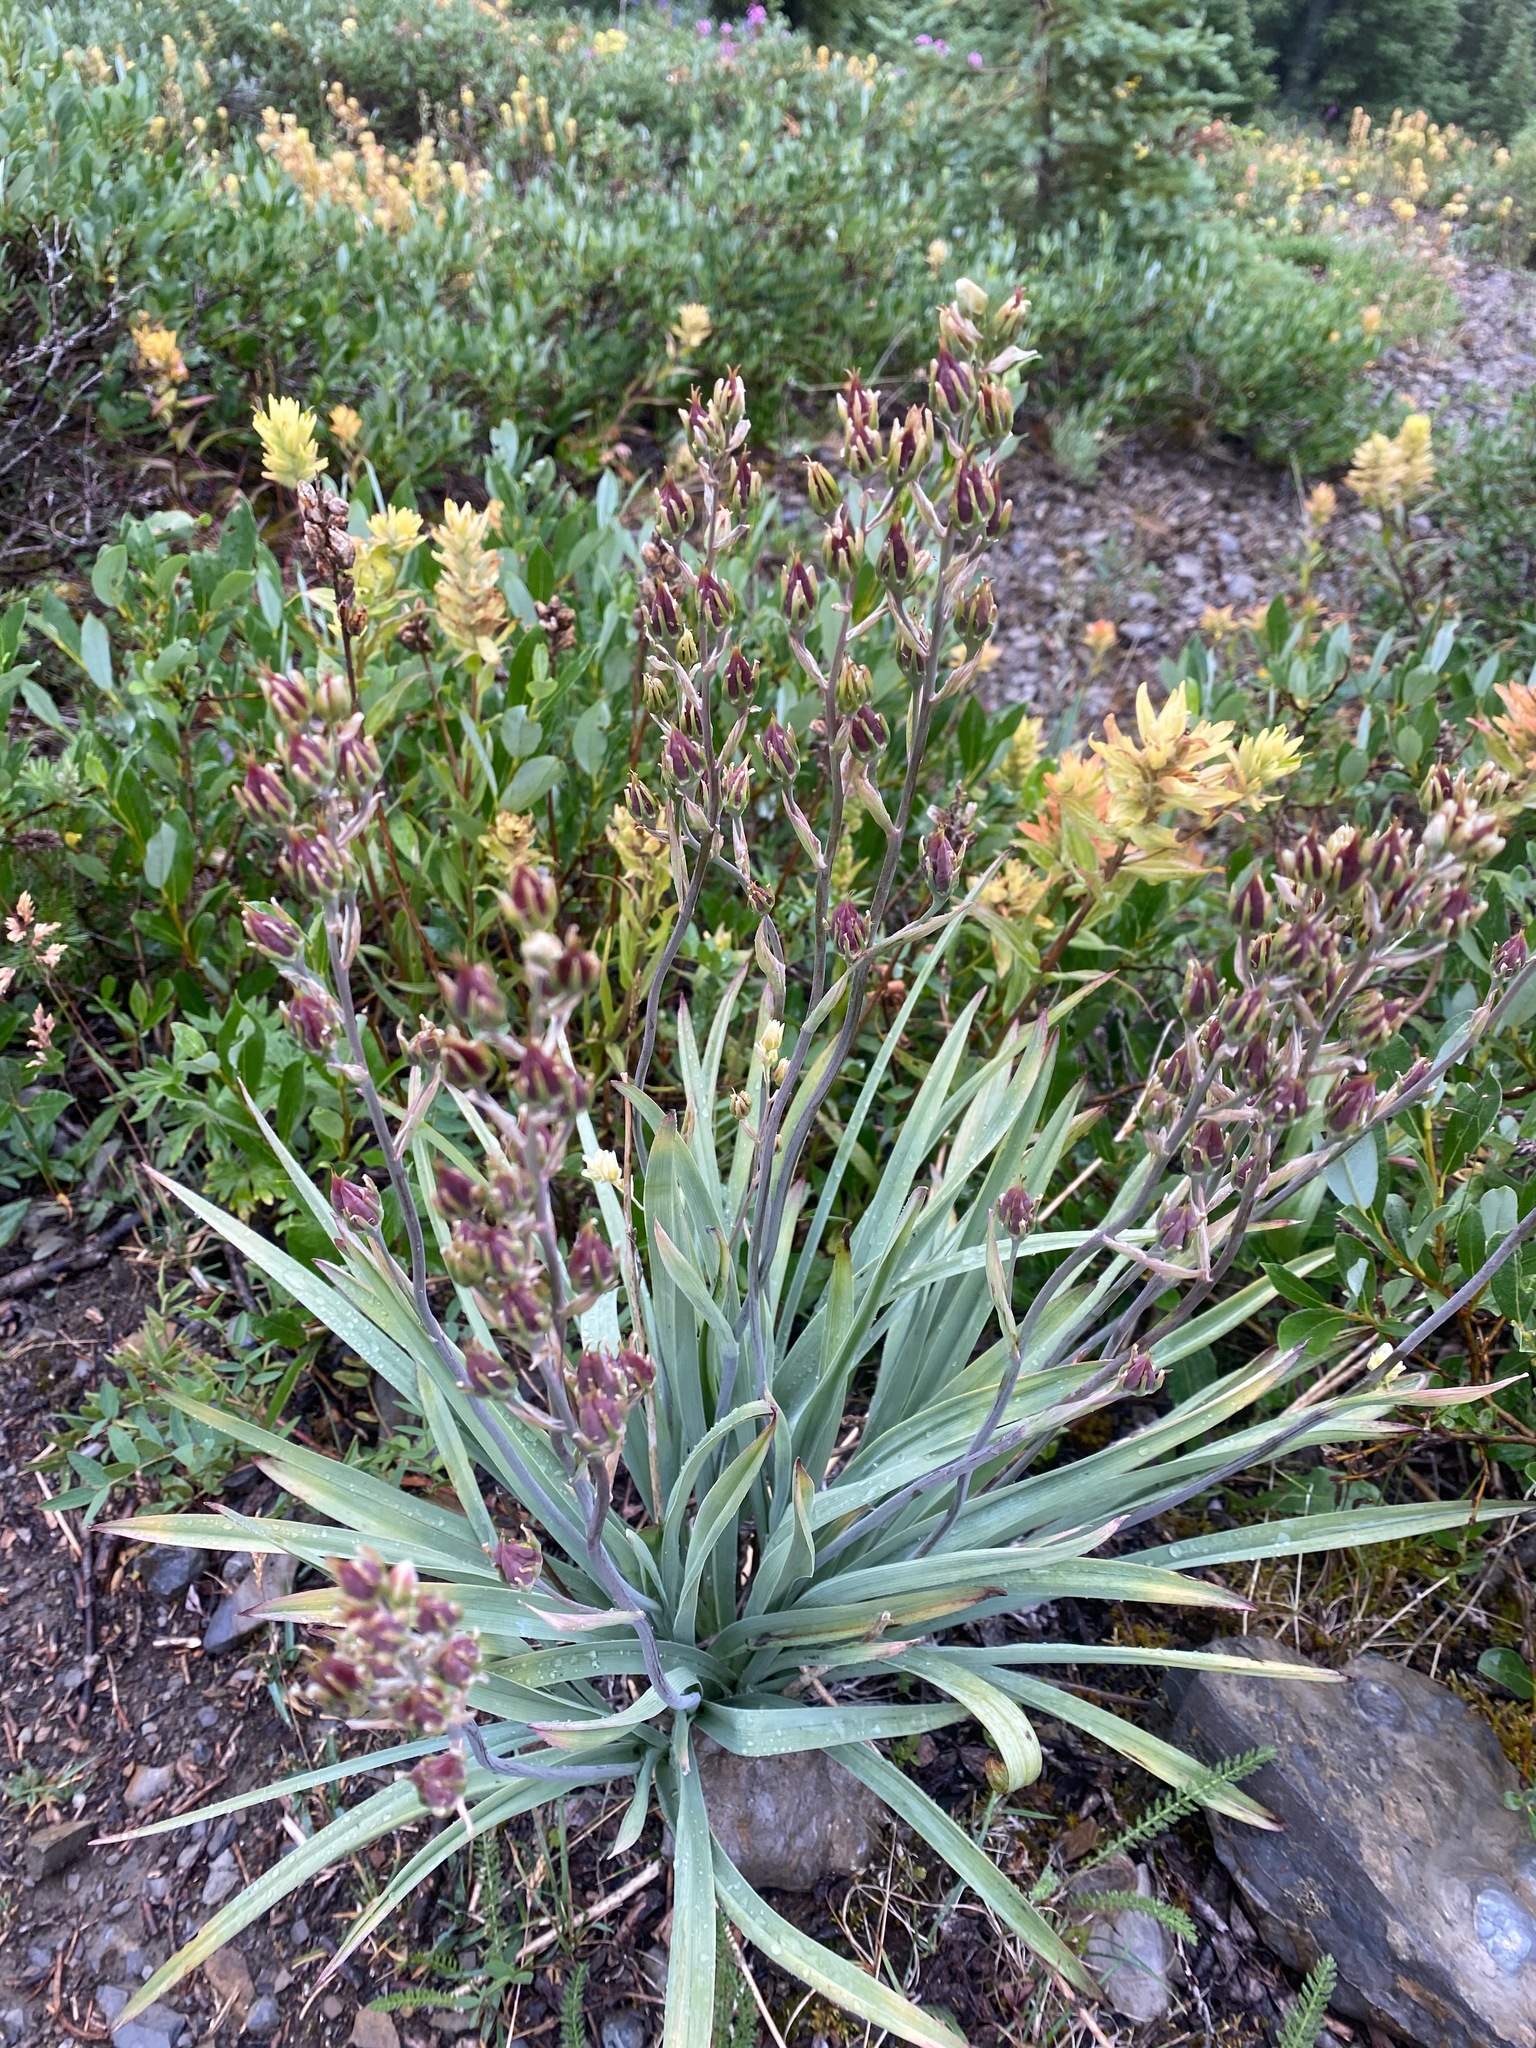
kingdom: Plantae
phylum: Tracheophyta
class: Liliopsida
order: Liliales
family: Melanthiaceae
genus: Anticlea
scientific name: Anticlea elegans
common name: Mountain death camas
